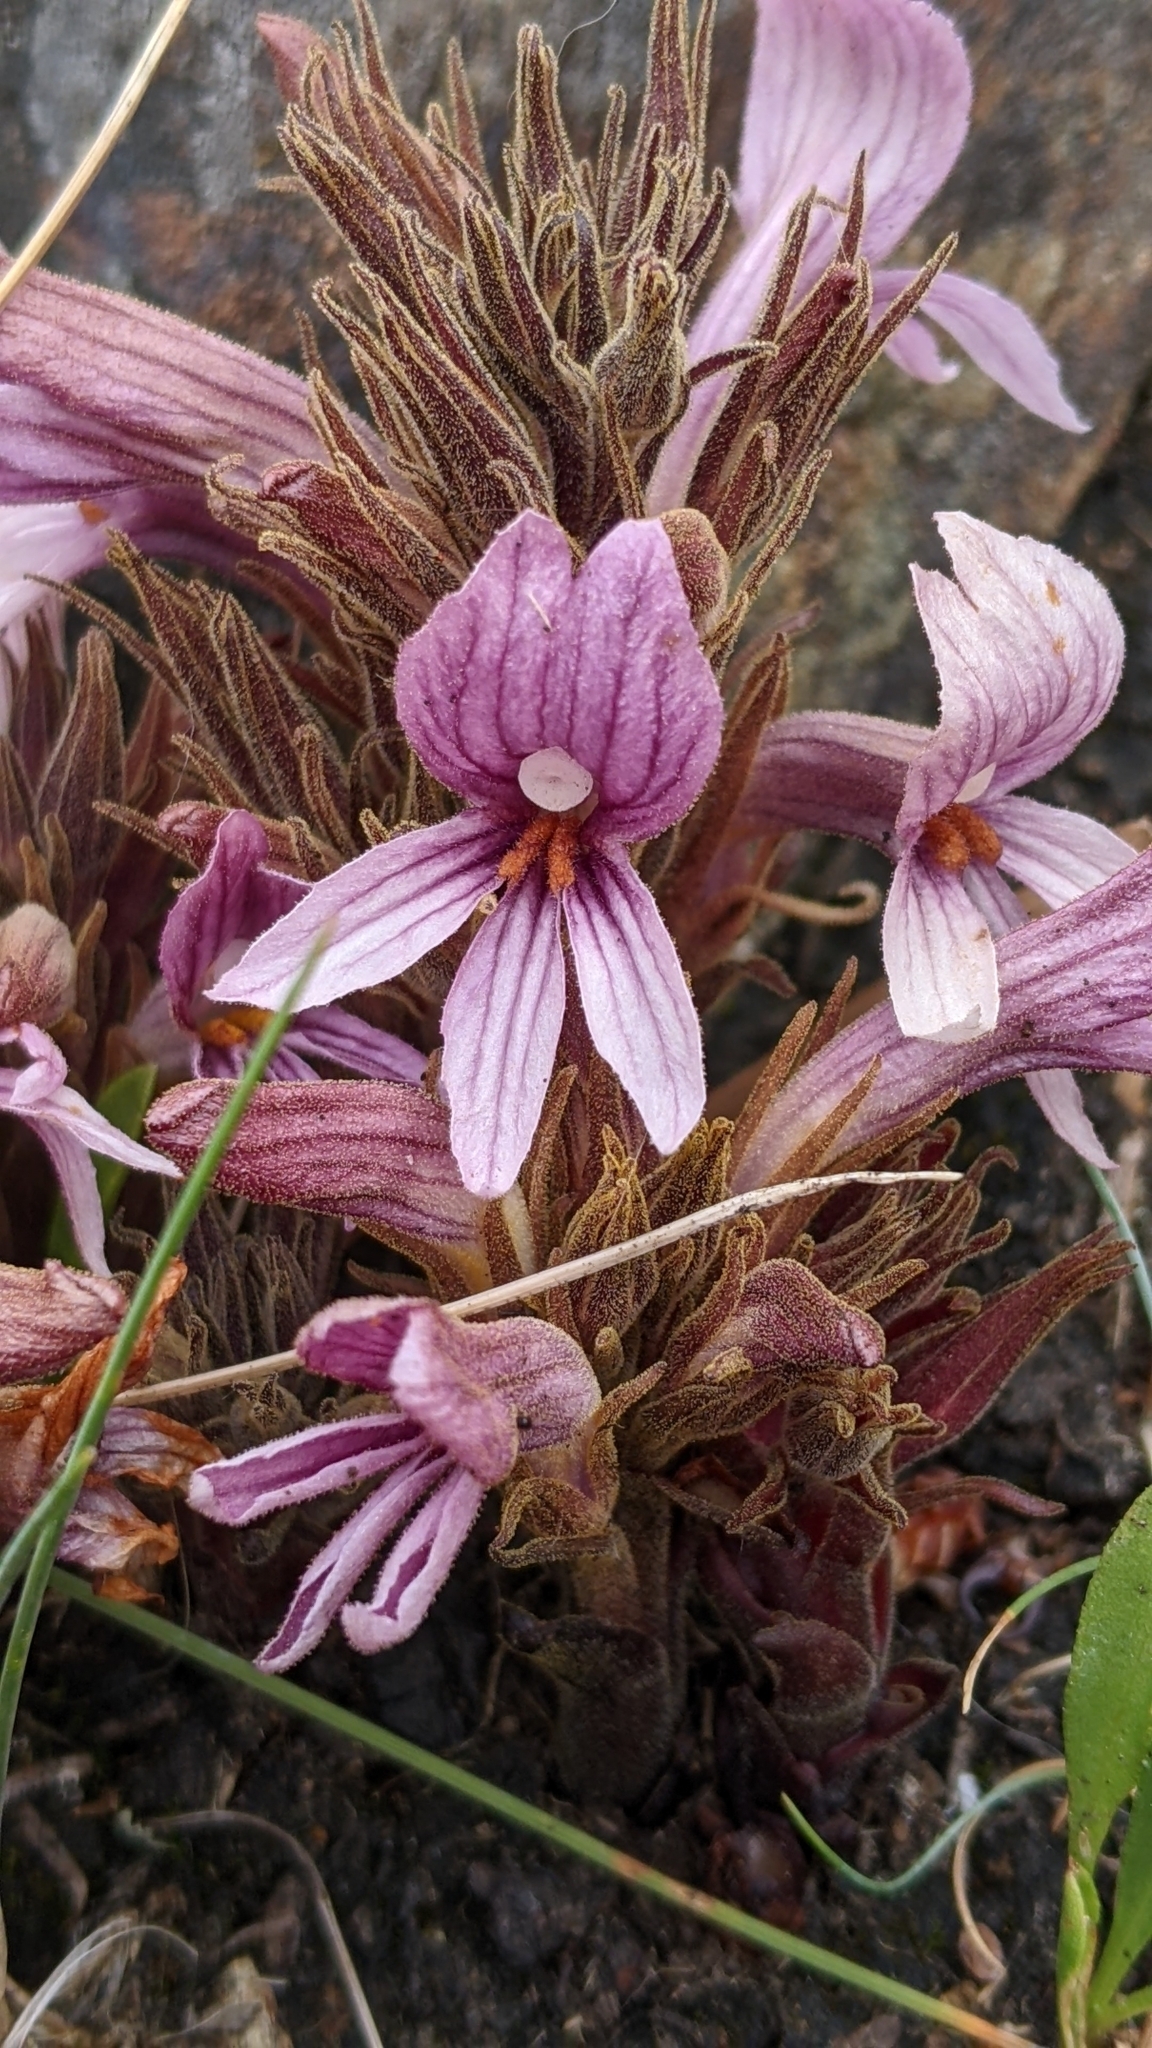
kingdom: Plantae
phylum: Tracheophyta
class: Magnoliopsida
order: Lamiales
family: Orobanchaceae
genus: Aphyllon
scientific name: Aphyllon californicum
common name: California broomrape
